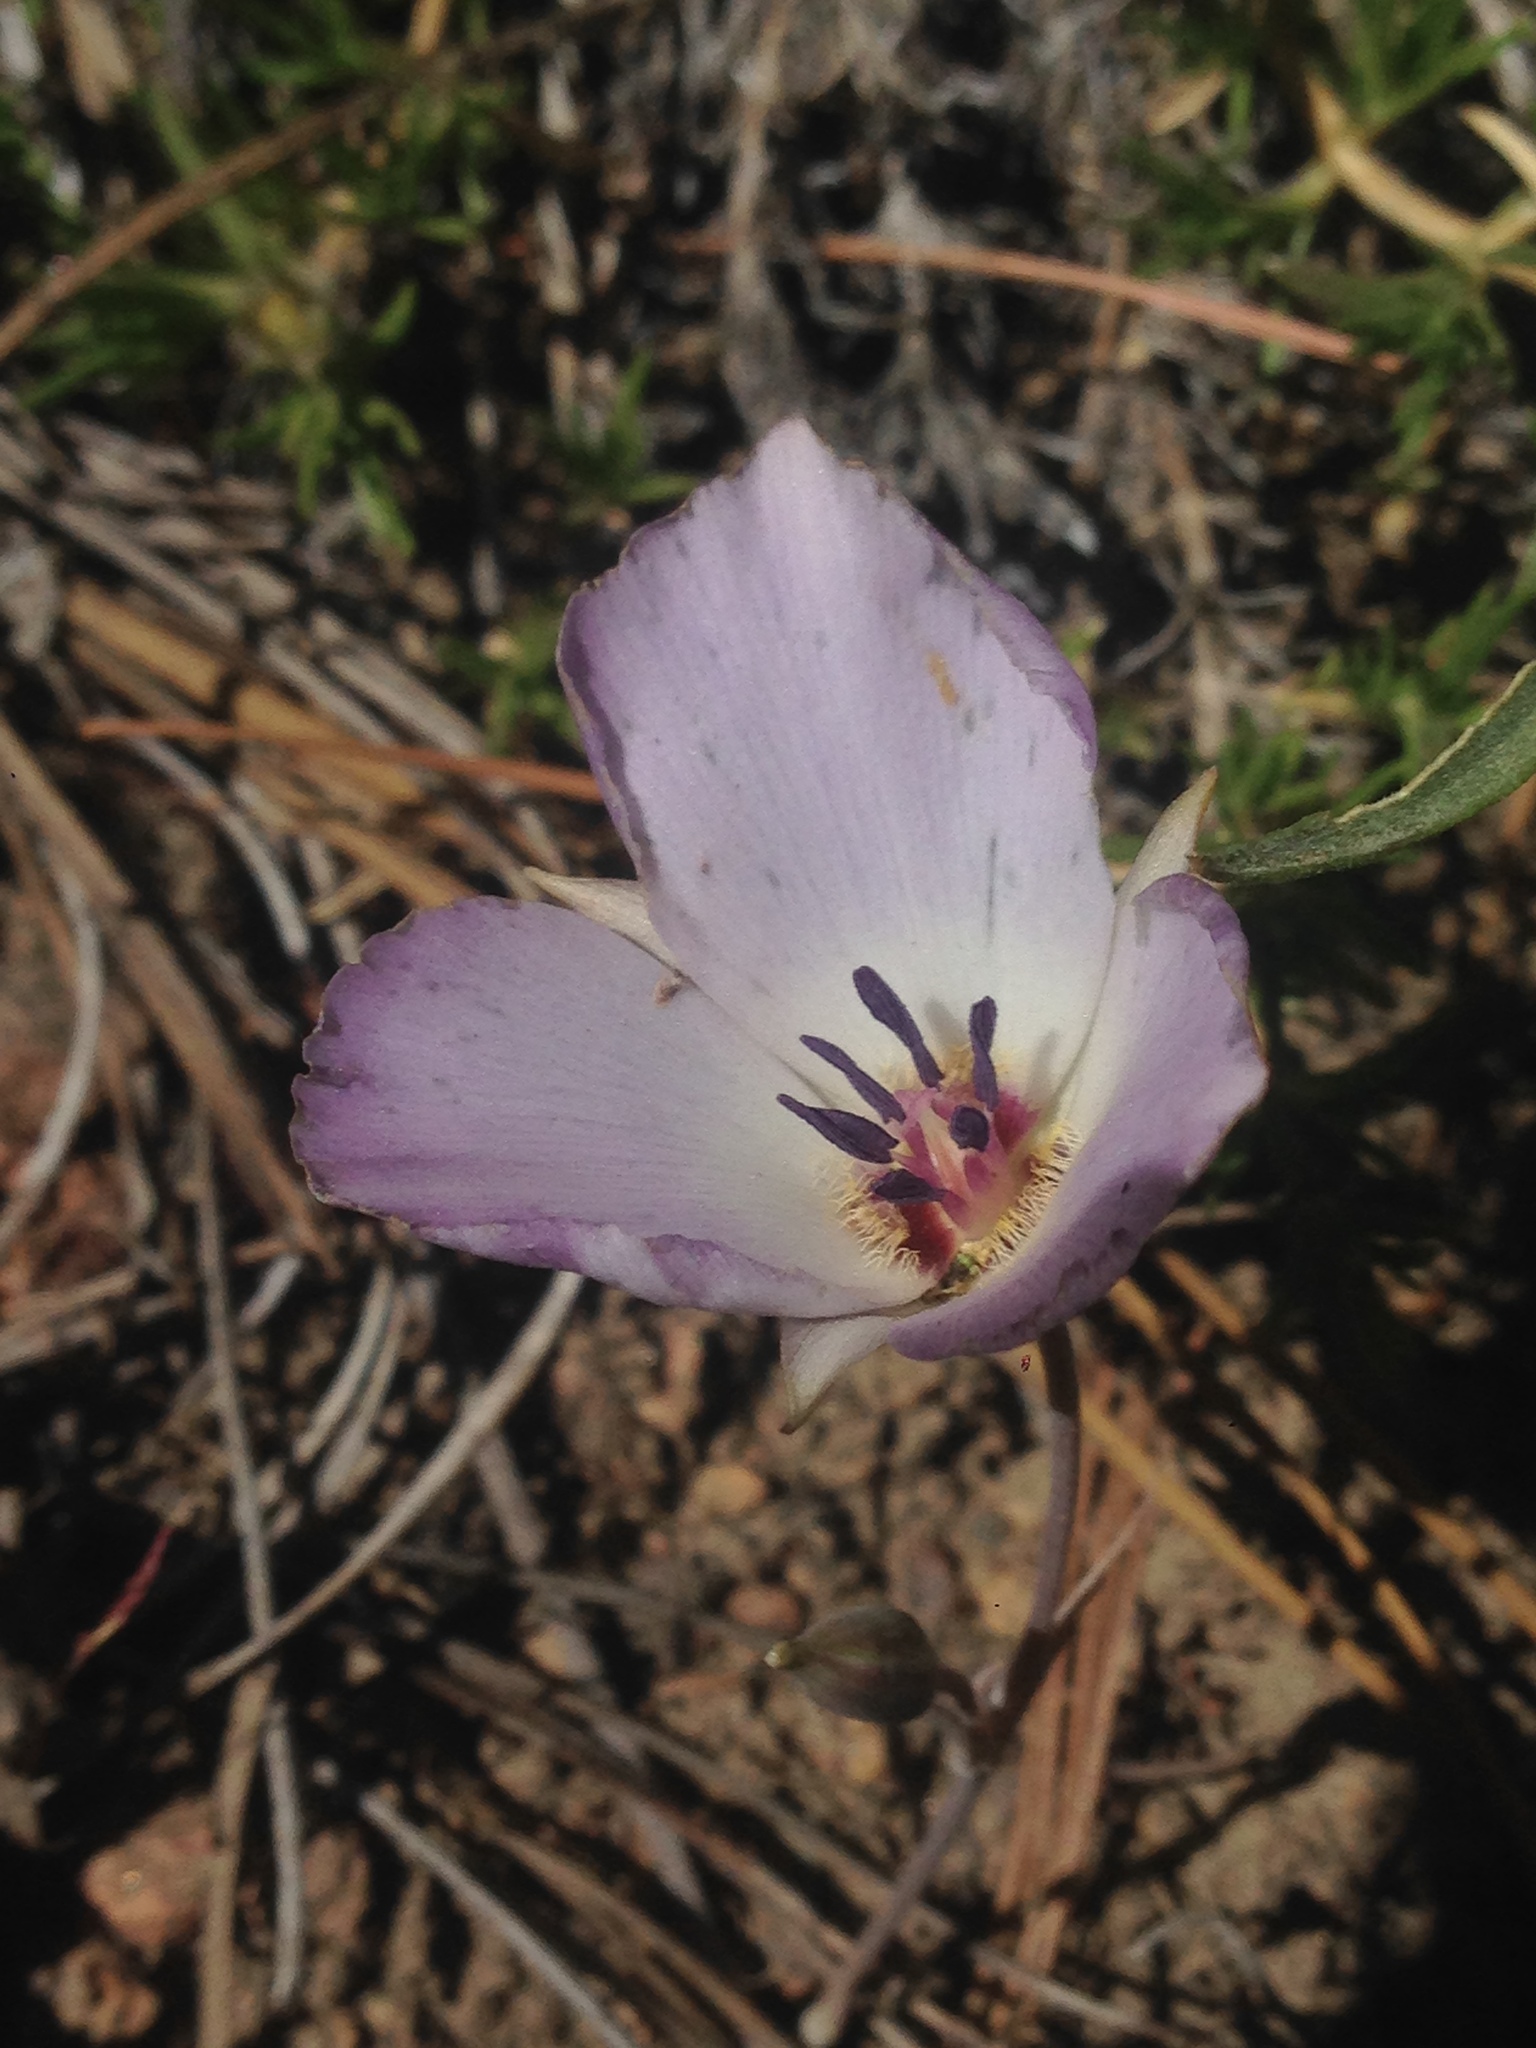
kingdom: Plantae
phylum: Tracheophyta
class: Liliopsida
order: Liliales
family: Liliaceae
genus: Calochortus
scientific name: Calochortus invenustus
